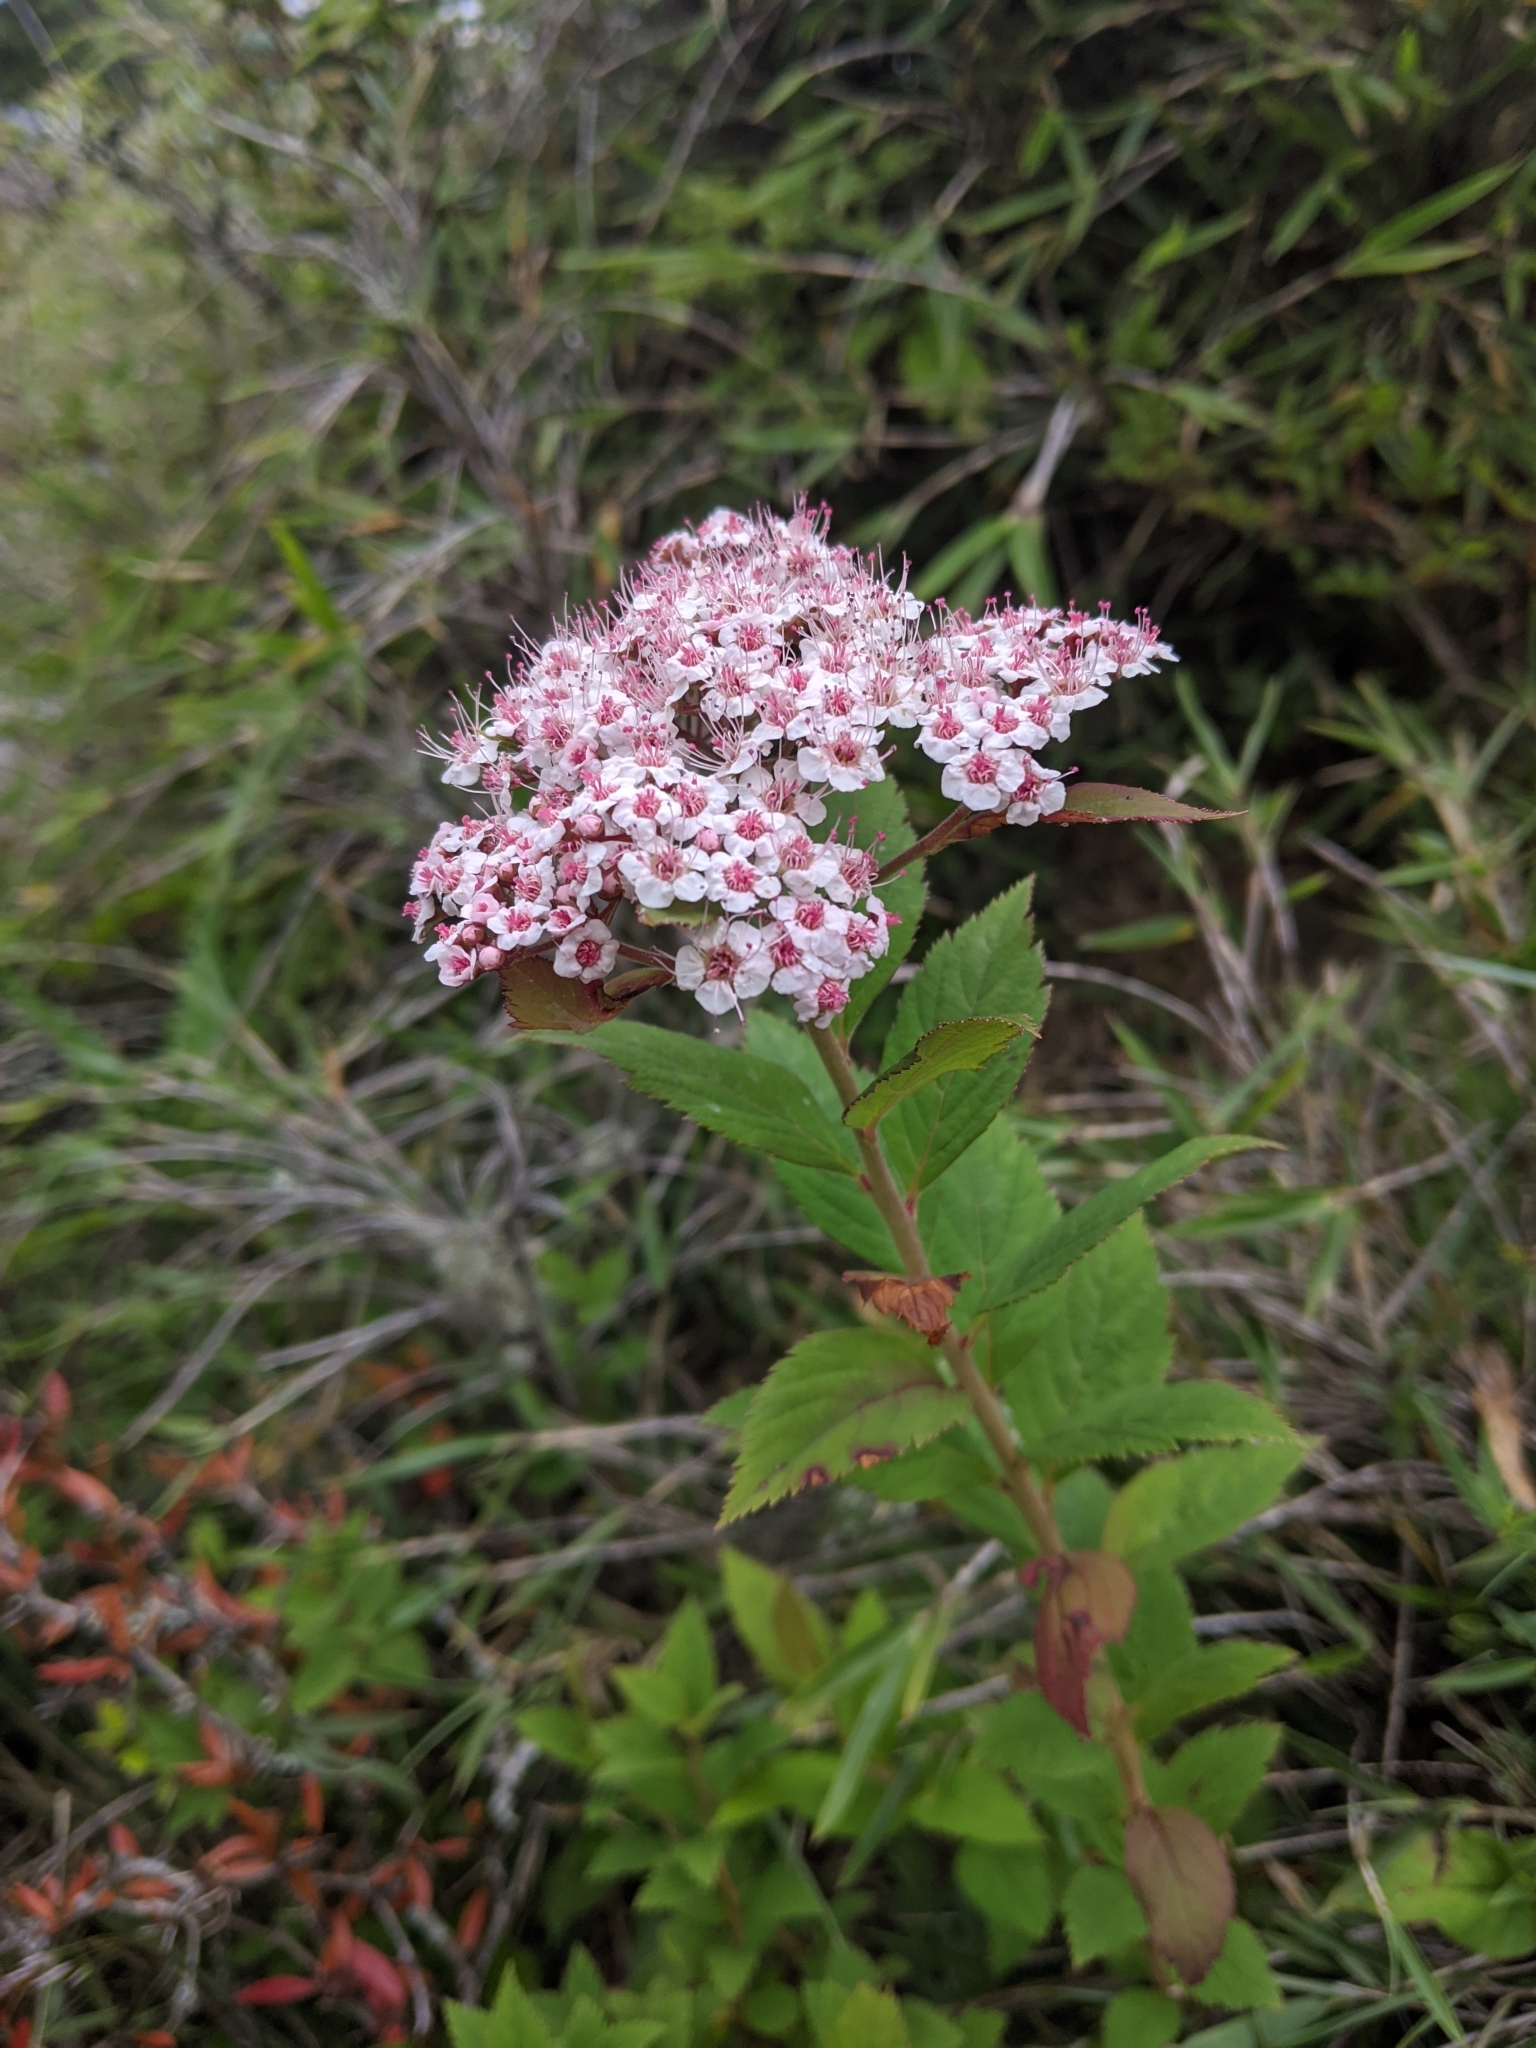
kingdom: Plantae
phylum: Tracheophyta
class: Magnoliopsida
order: Rosales
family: Rosaceae
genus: Spiraea
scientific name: Spiraea morrisonicola
